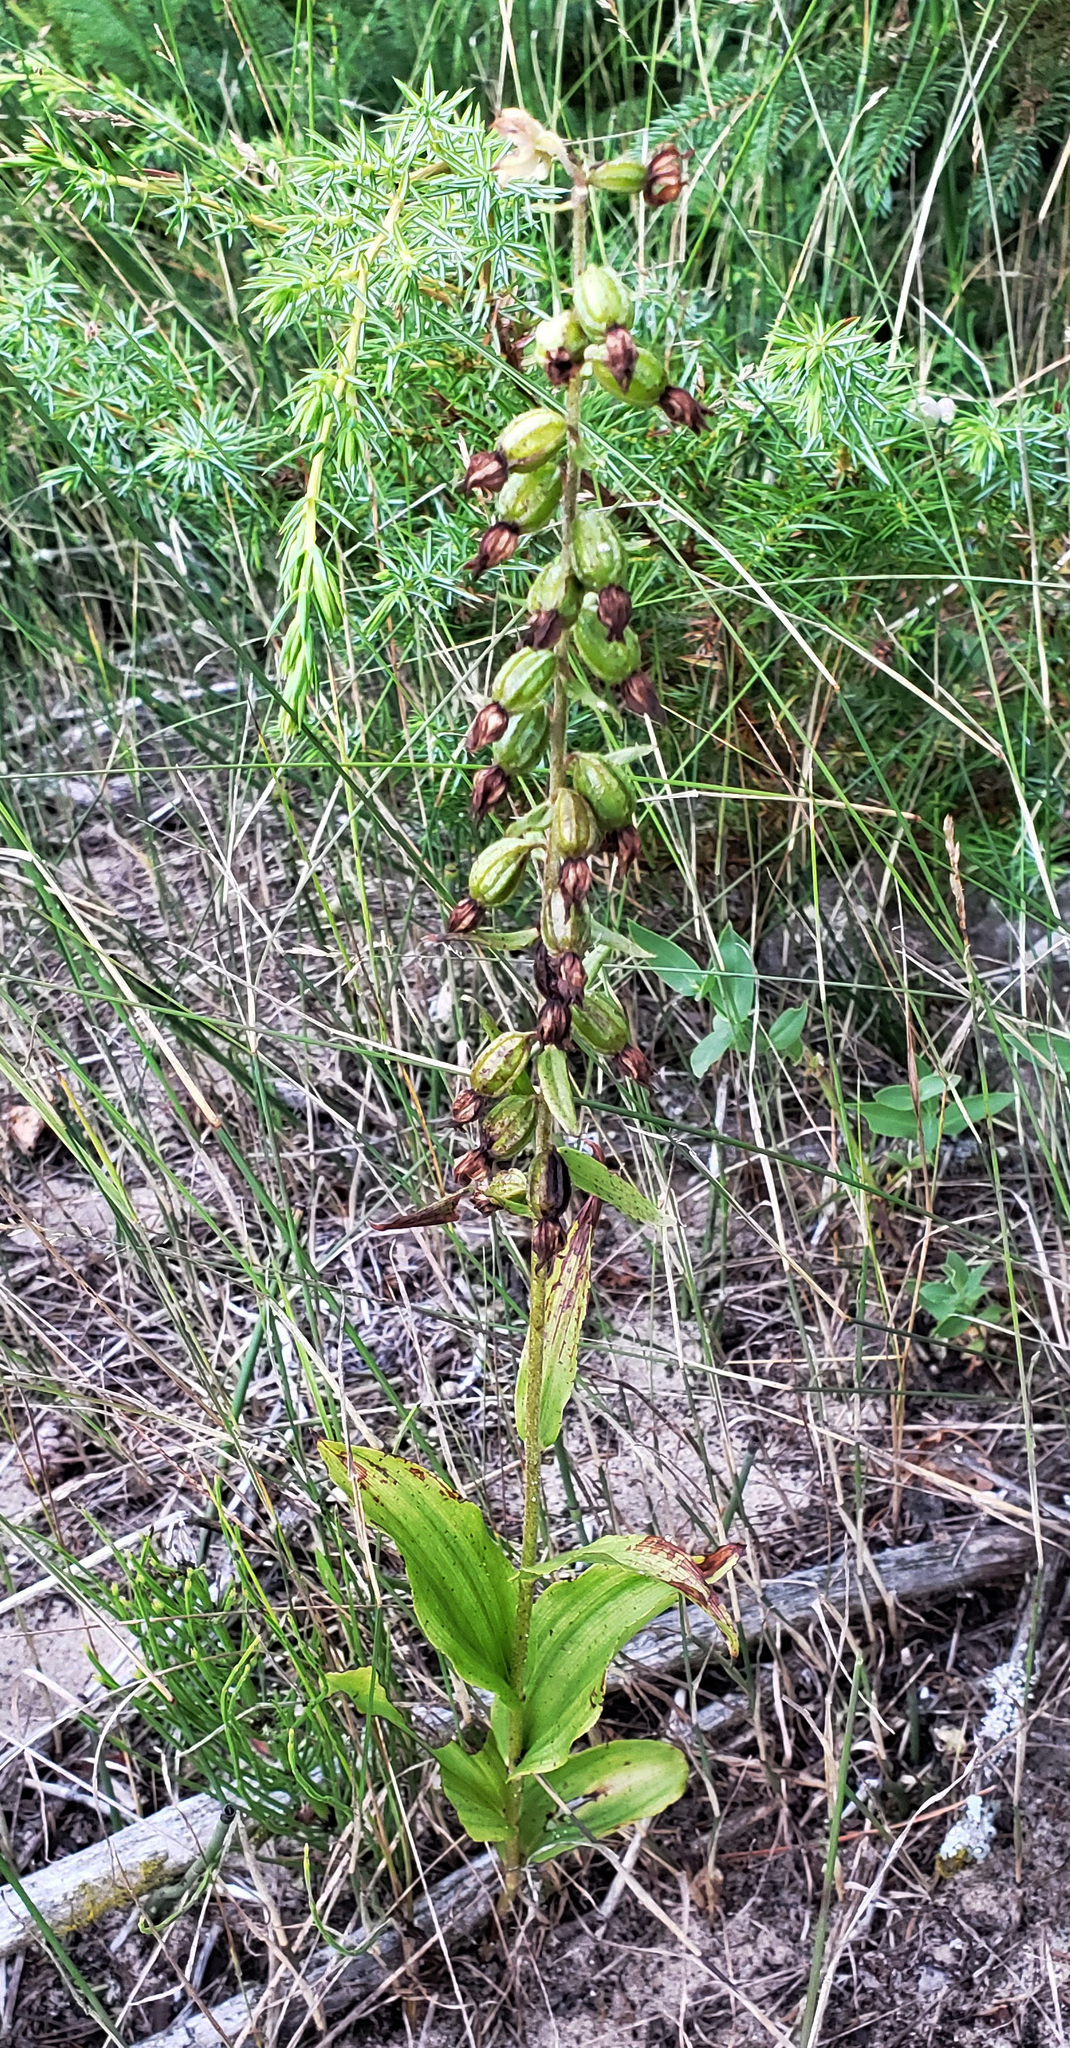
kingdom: Plantae
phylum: Tracheophyta
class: Liliopsida
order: Asparagales
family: Orchidaceae
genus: Epipactis
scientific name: Epipactis helleborine
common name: Broad-leaved helleborine
